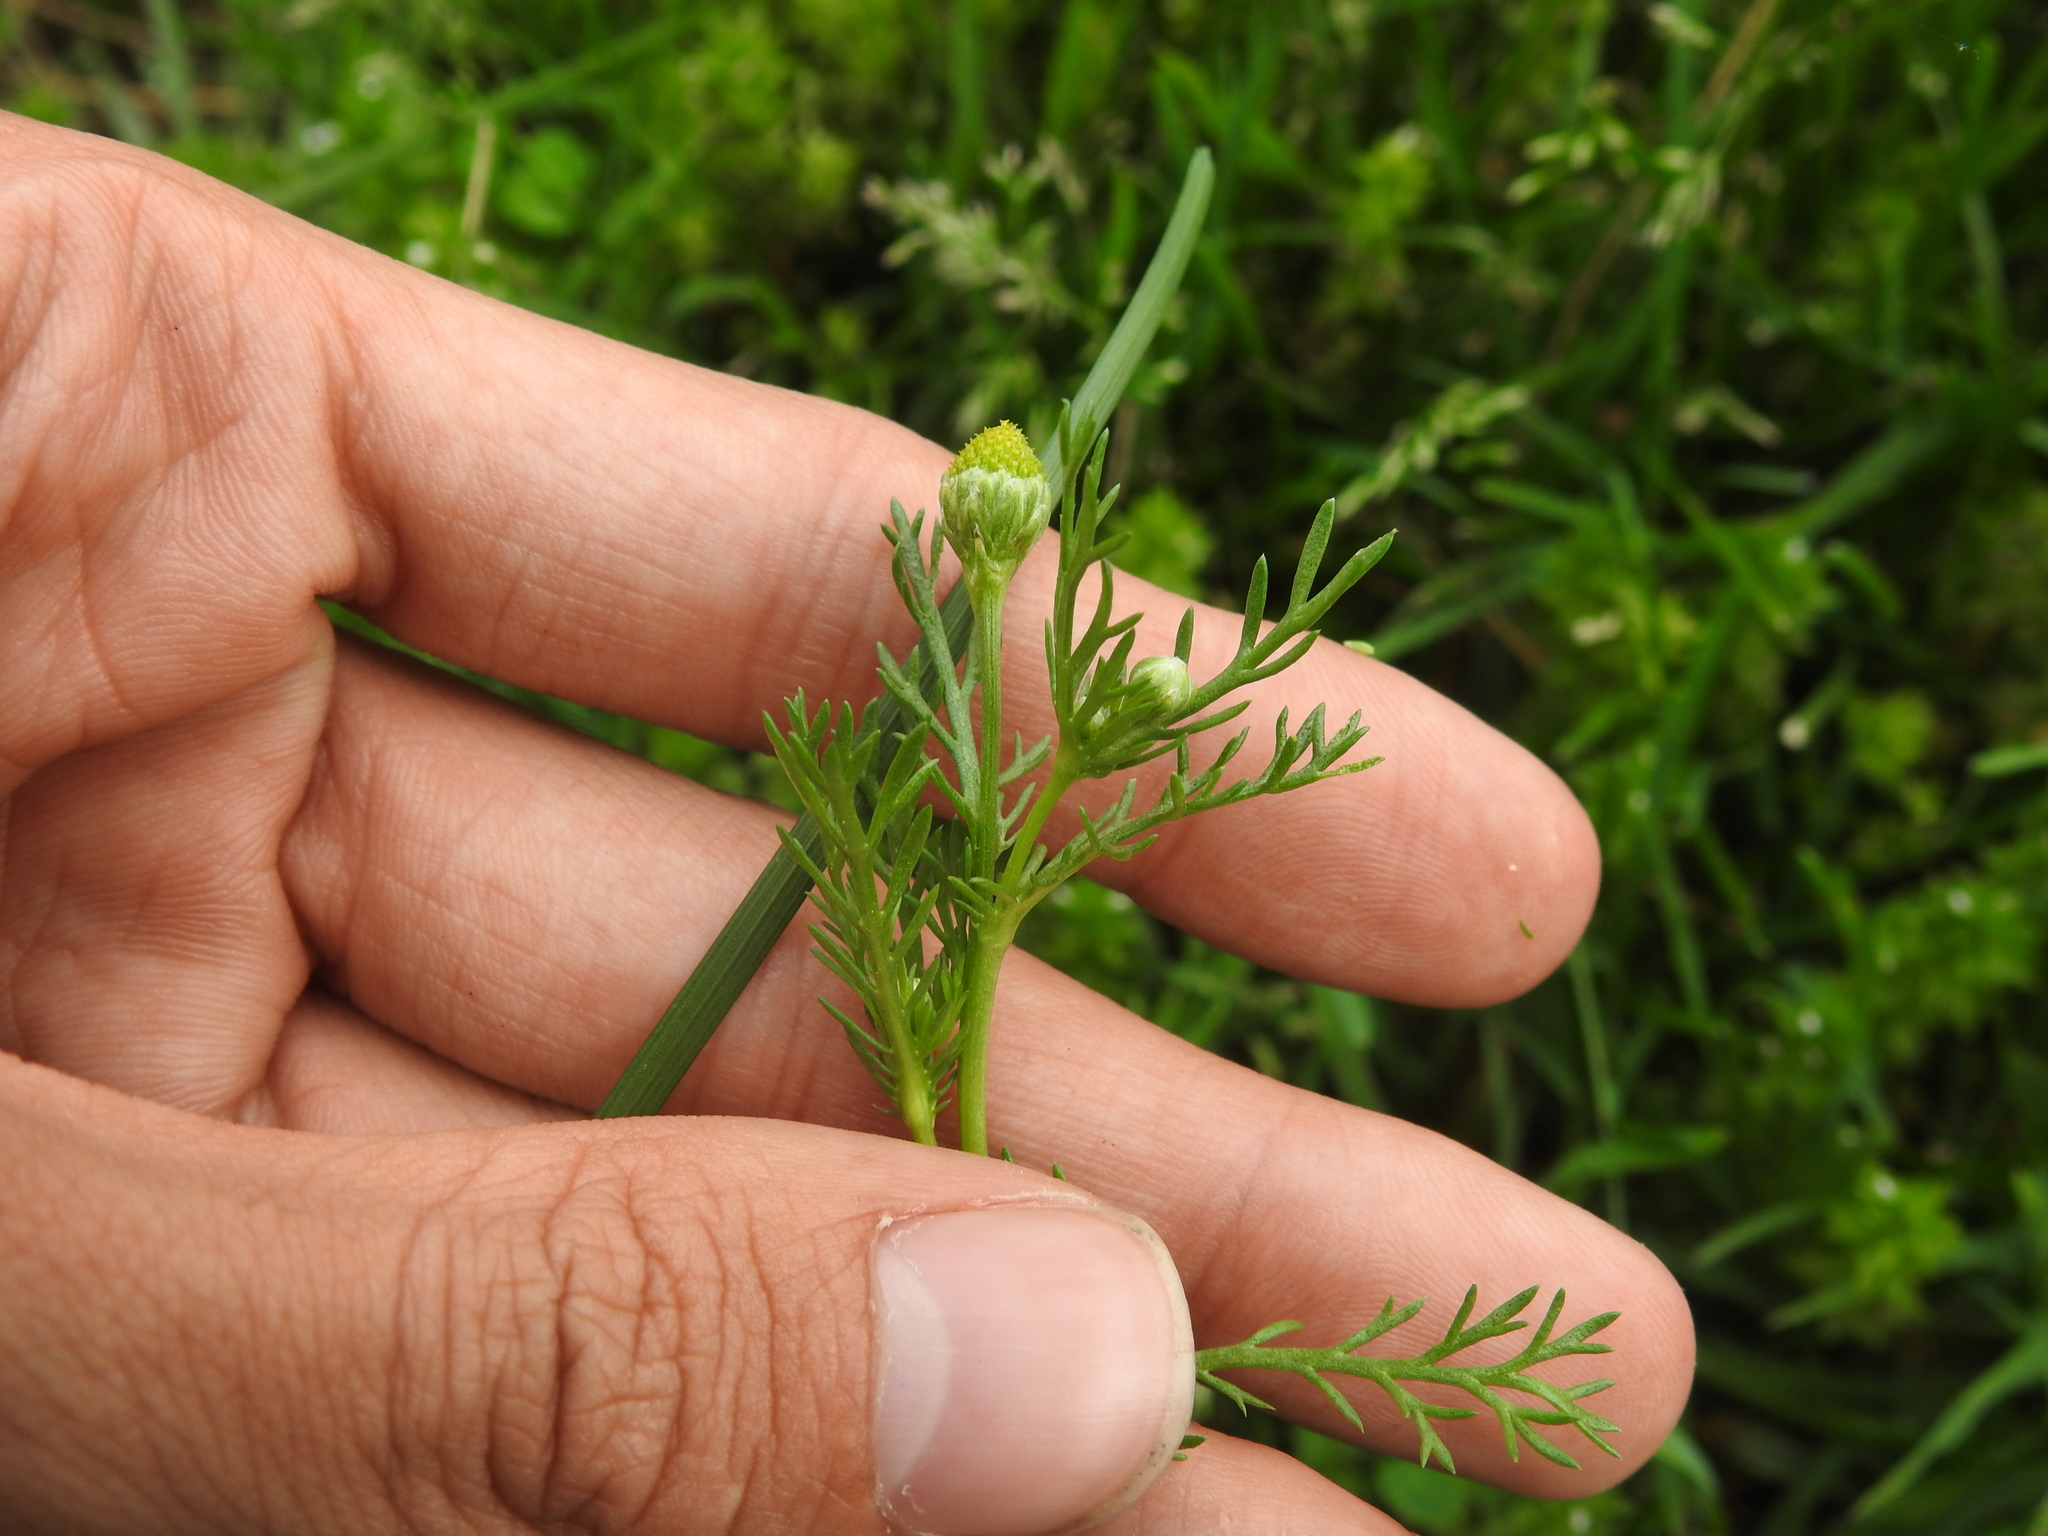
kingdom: Plantae
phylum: Tracheophyta
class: Magnoliopsida
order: Asterales
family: Asteraceae
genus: Matricaria
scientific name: Matricaria discoidea
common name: Disc mayweed
